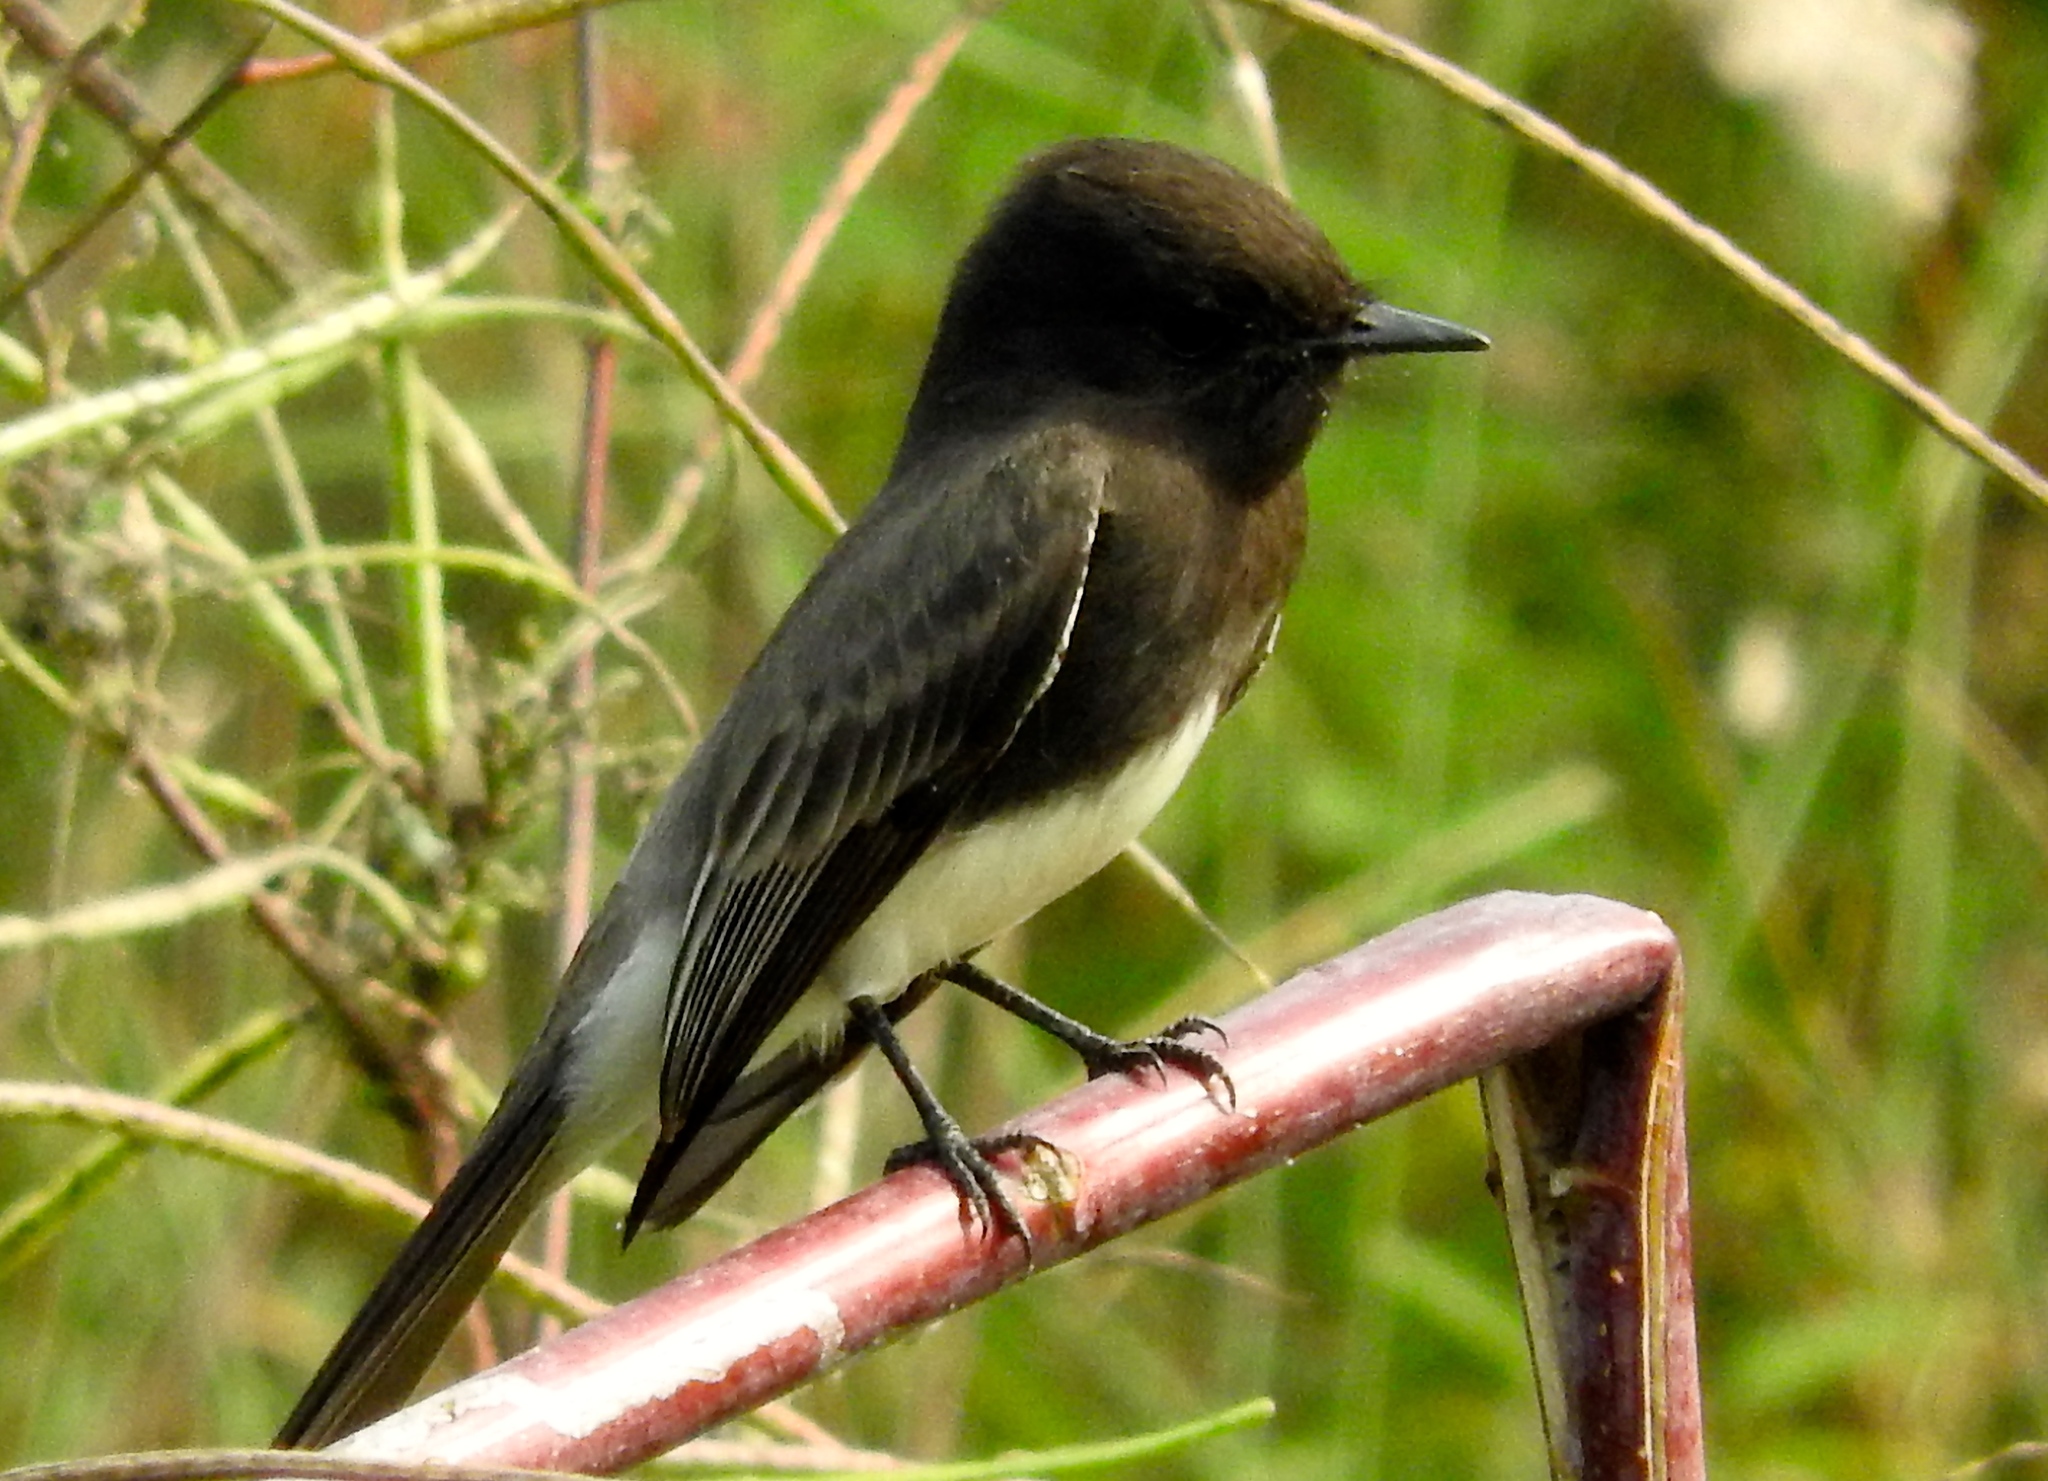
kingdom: Animalia
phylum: Chordata
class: Aves
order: Passeriformes
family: Tyrannidae
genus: Sayornis
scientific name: Sayornis nigricans
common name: Black phoebe
